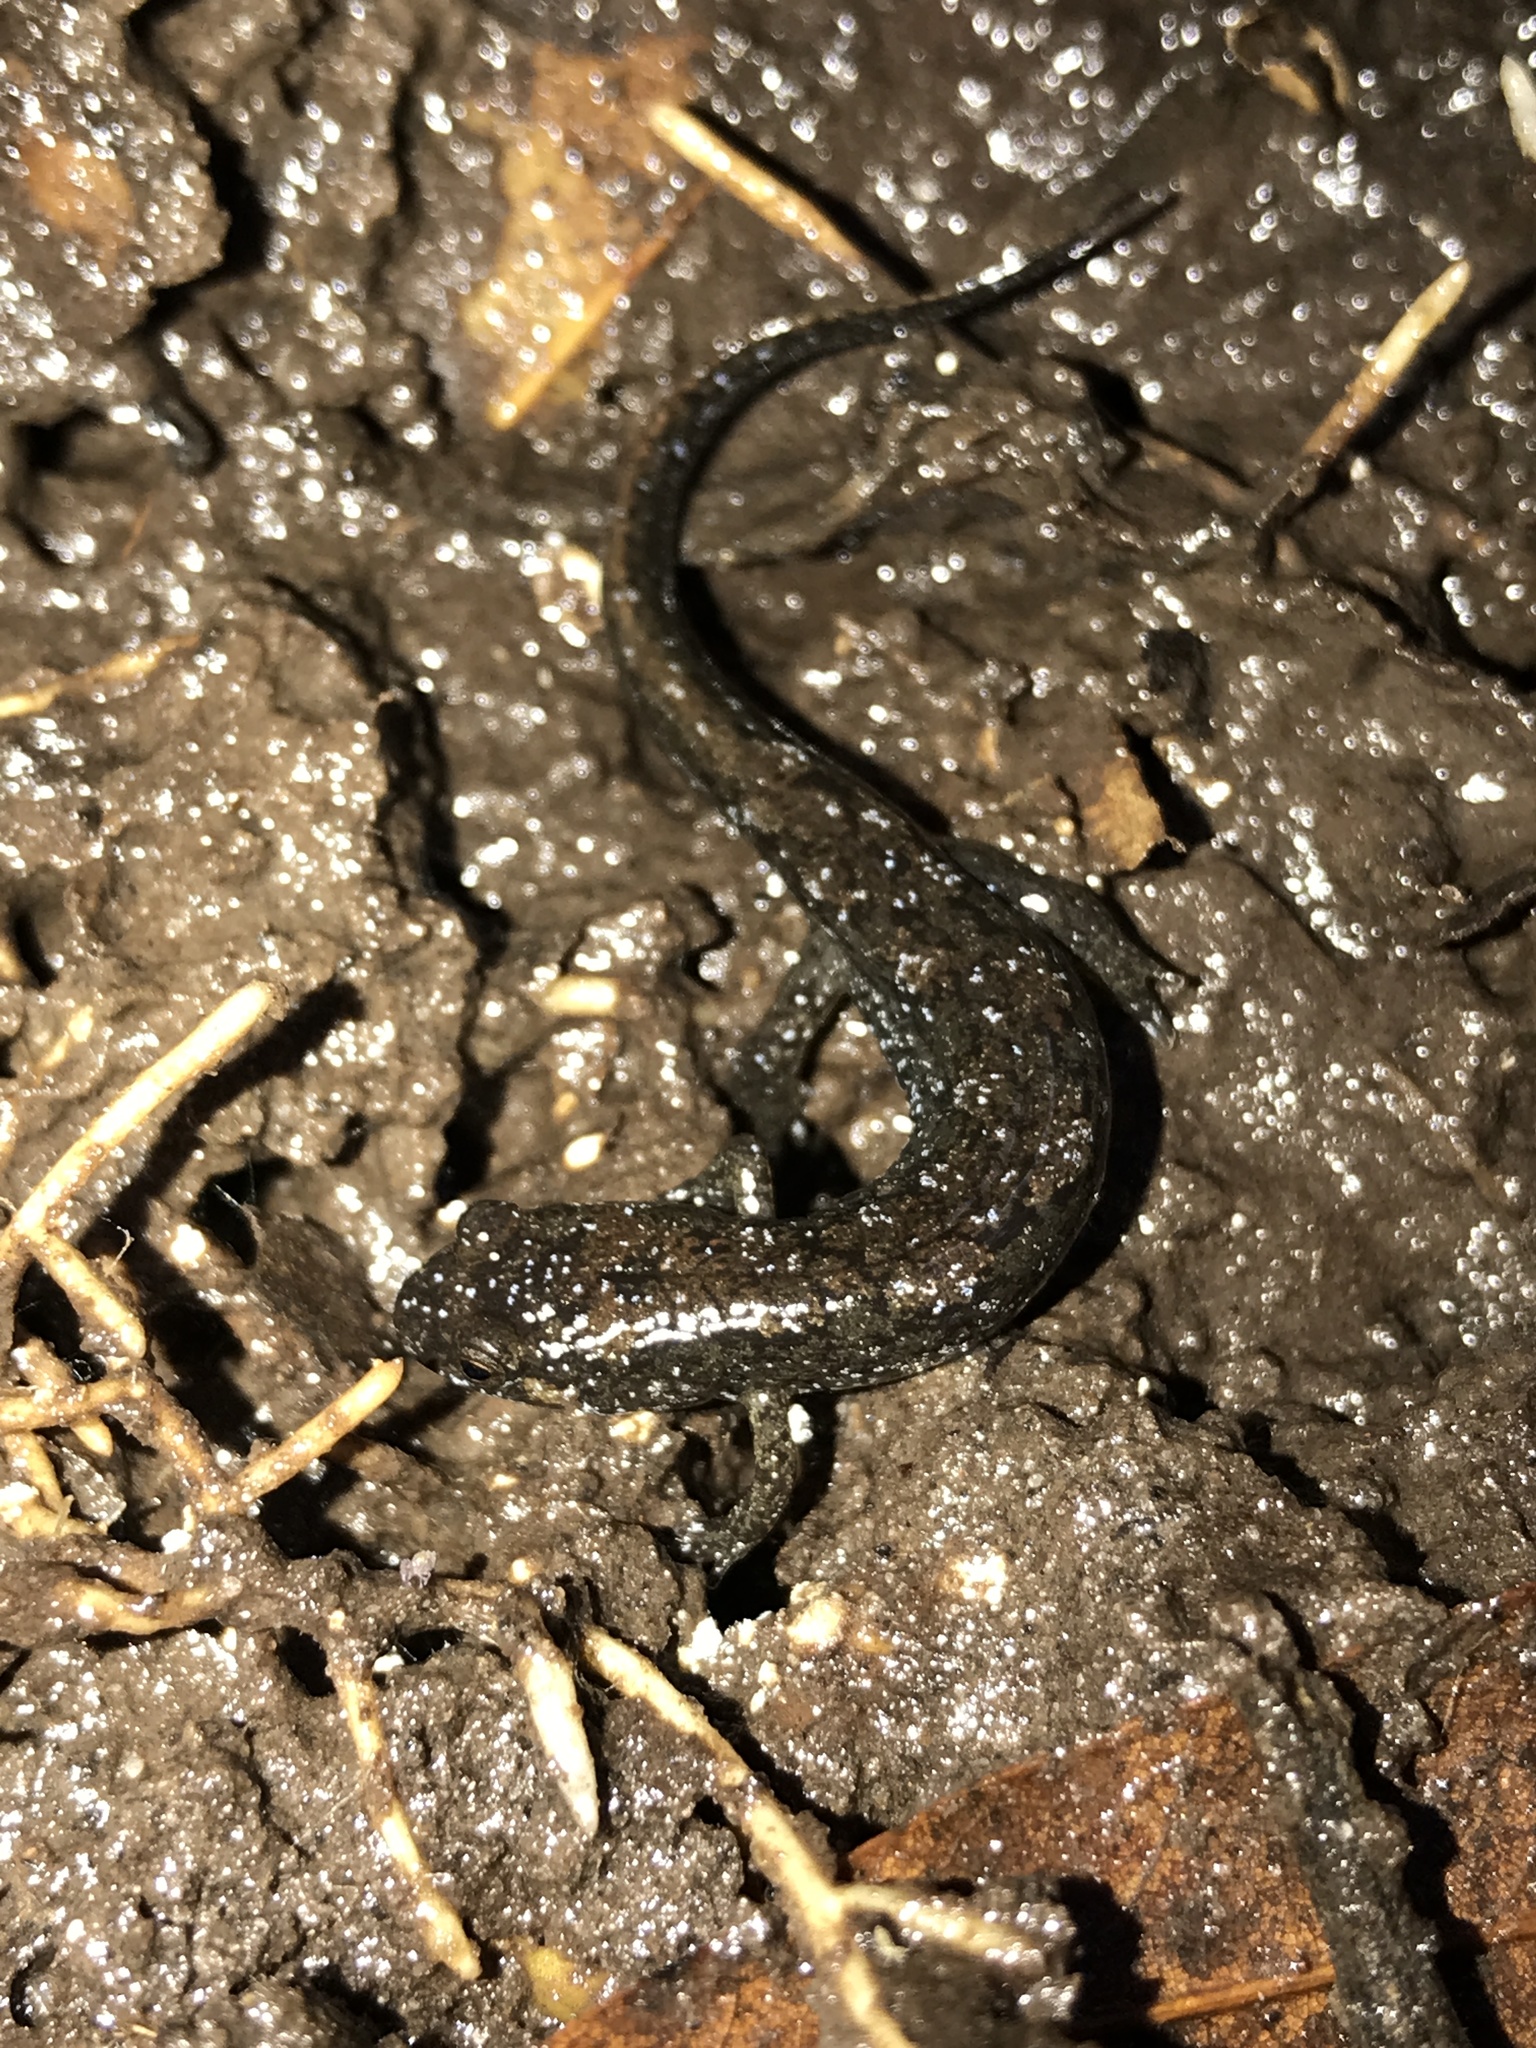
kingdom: Animalia
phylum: Chordata
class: Amphibia
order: Caudata
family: Plethodontidae
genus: Desmognathus
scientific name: Desmognathus conanti
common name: Spotted dusky salamander
